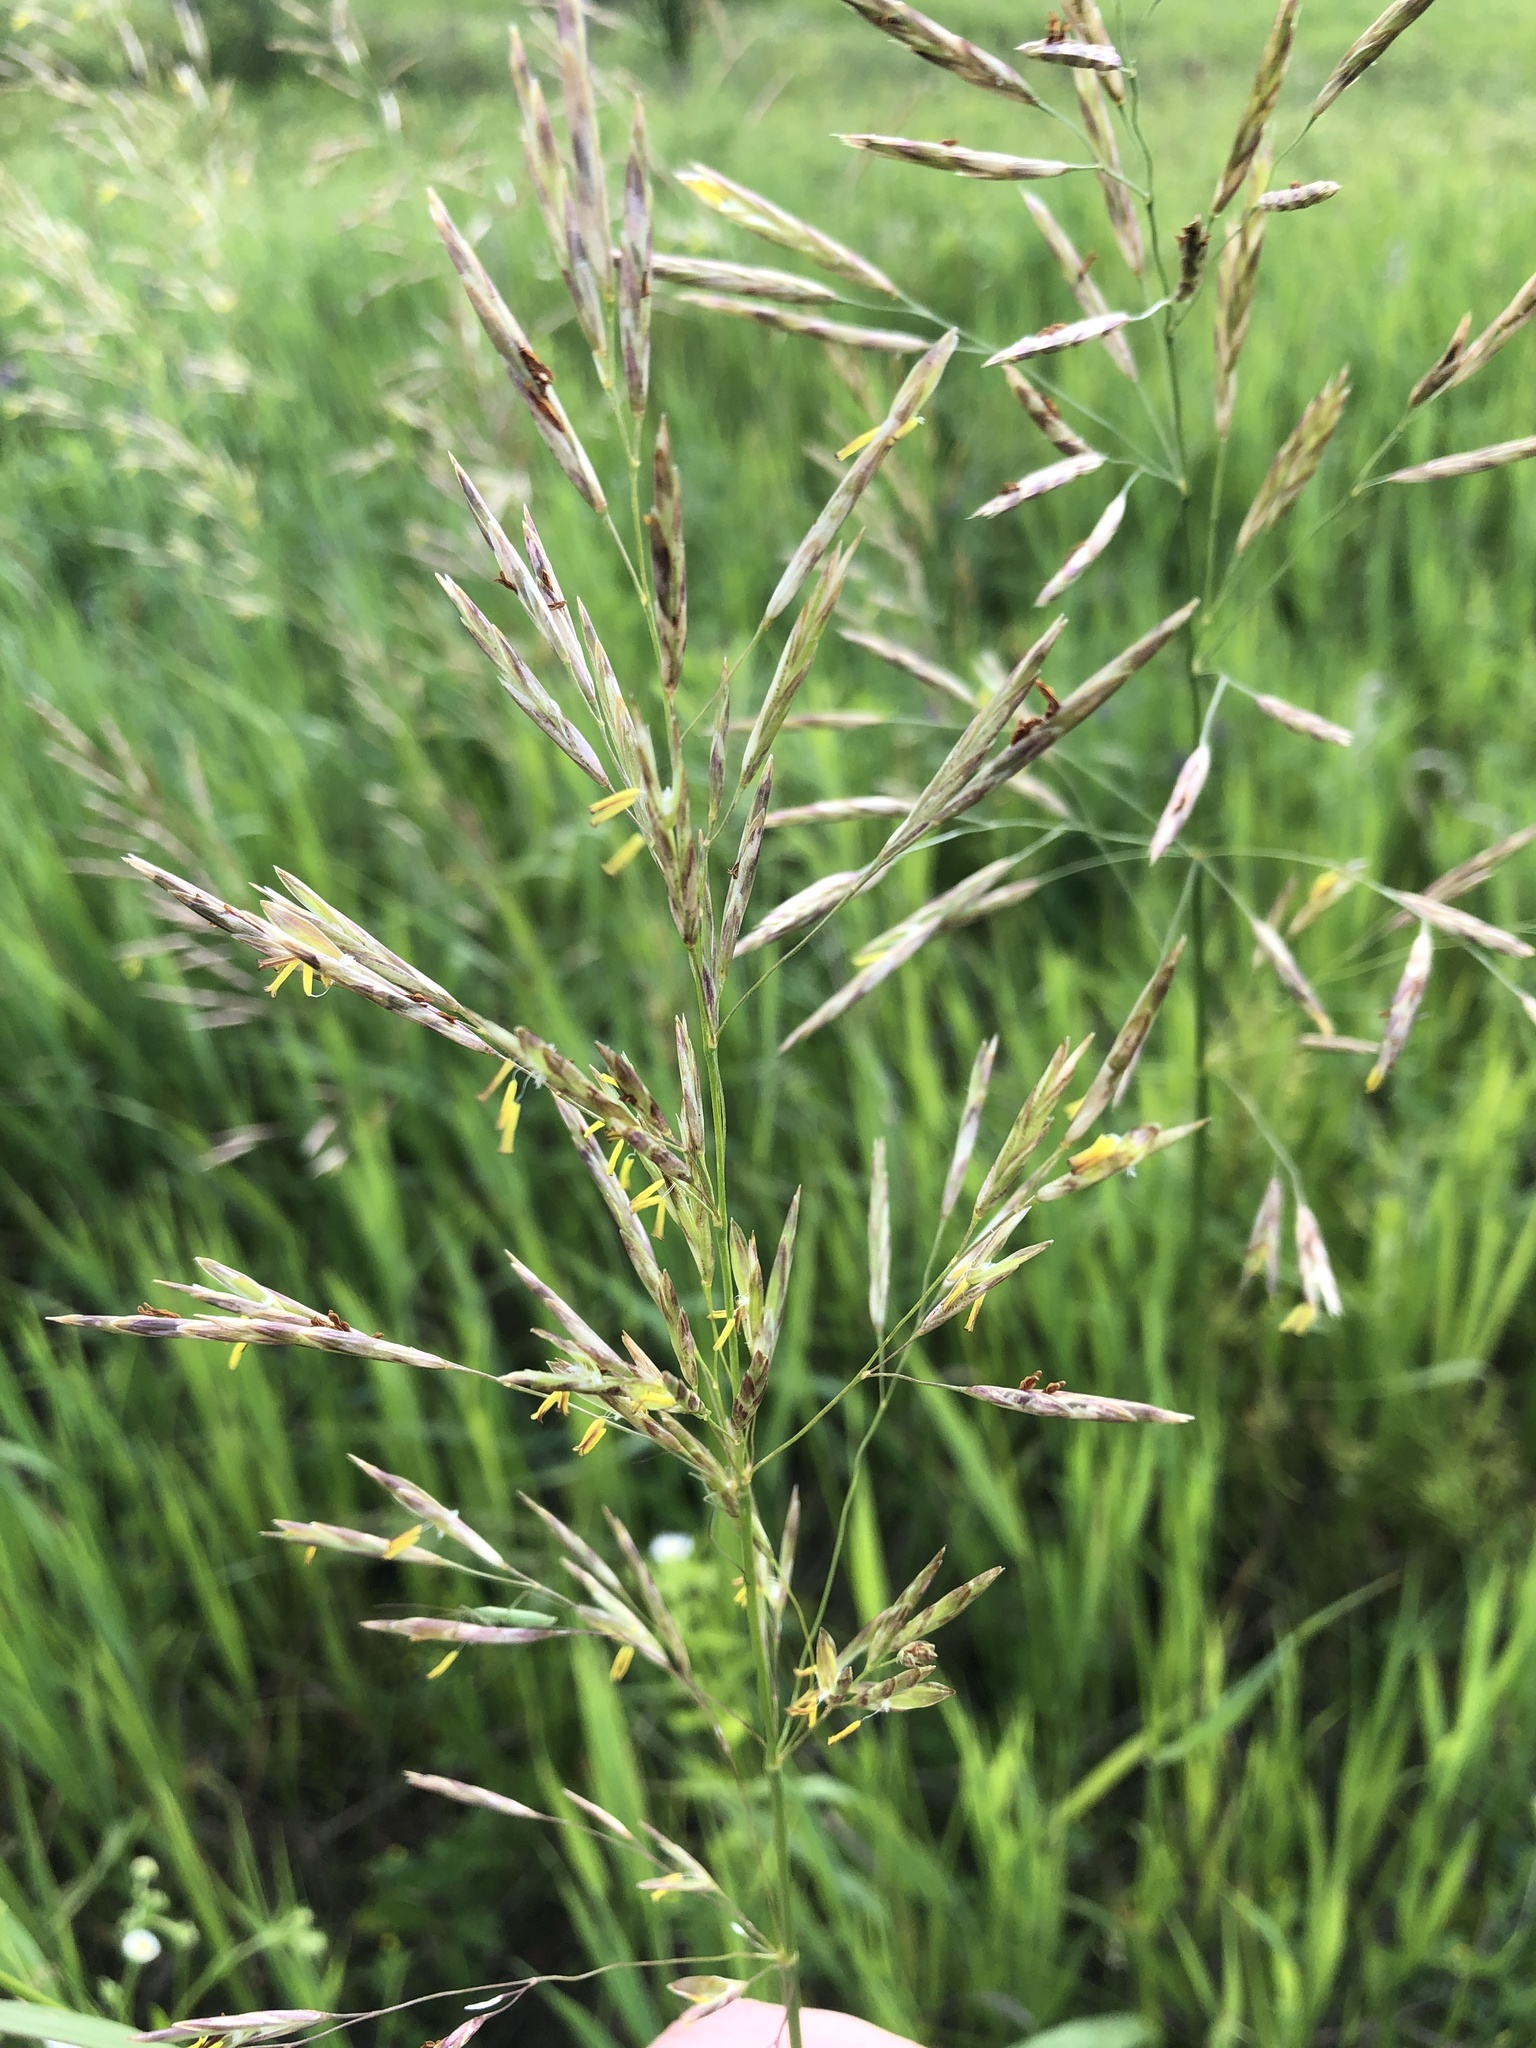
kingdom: Plantae
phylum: Tracheophyta
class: Liliopsida
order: Poales
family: Poaceae
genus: Bromus
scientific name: Bromus inermis
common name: Smooth brome
